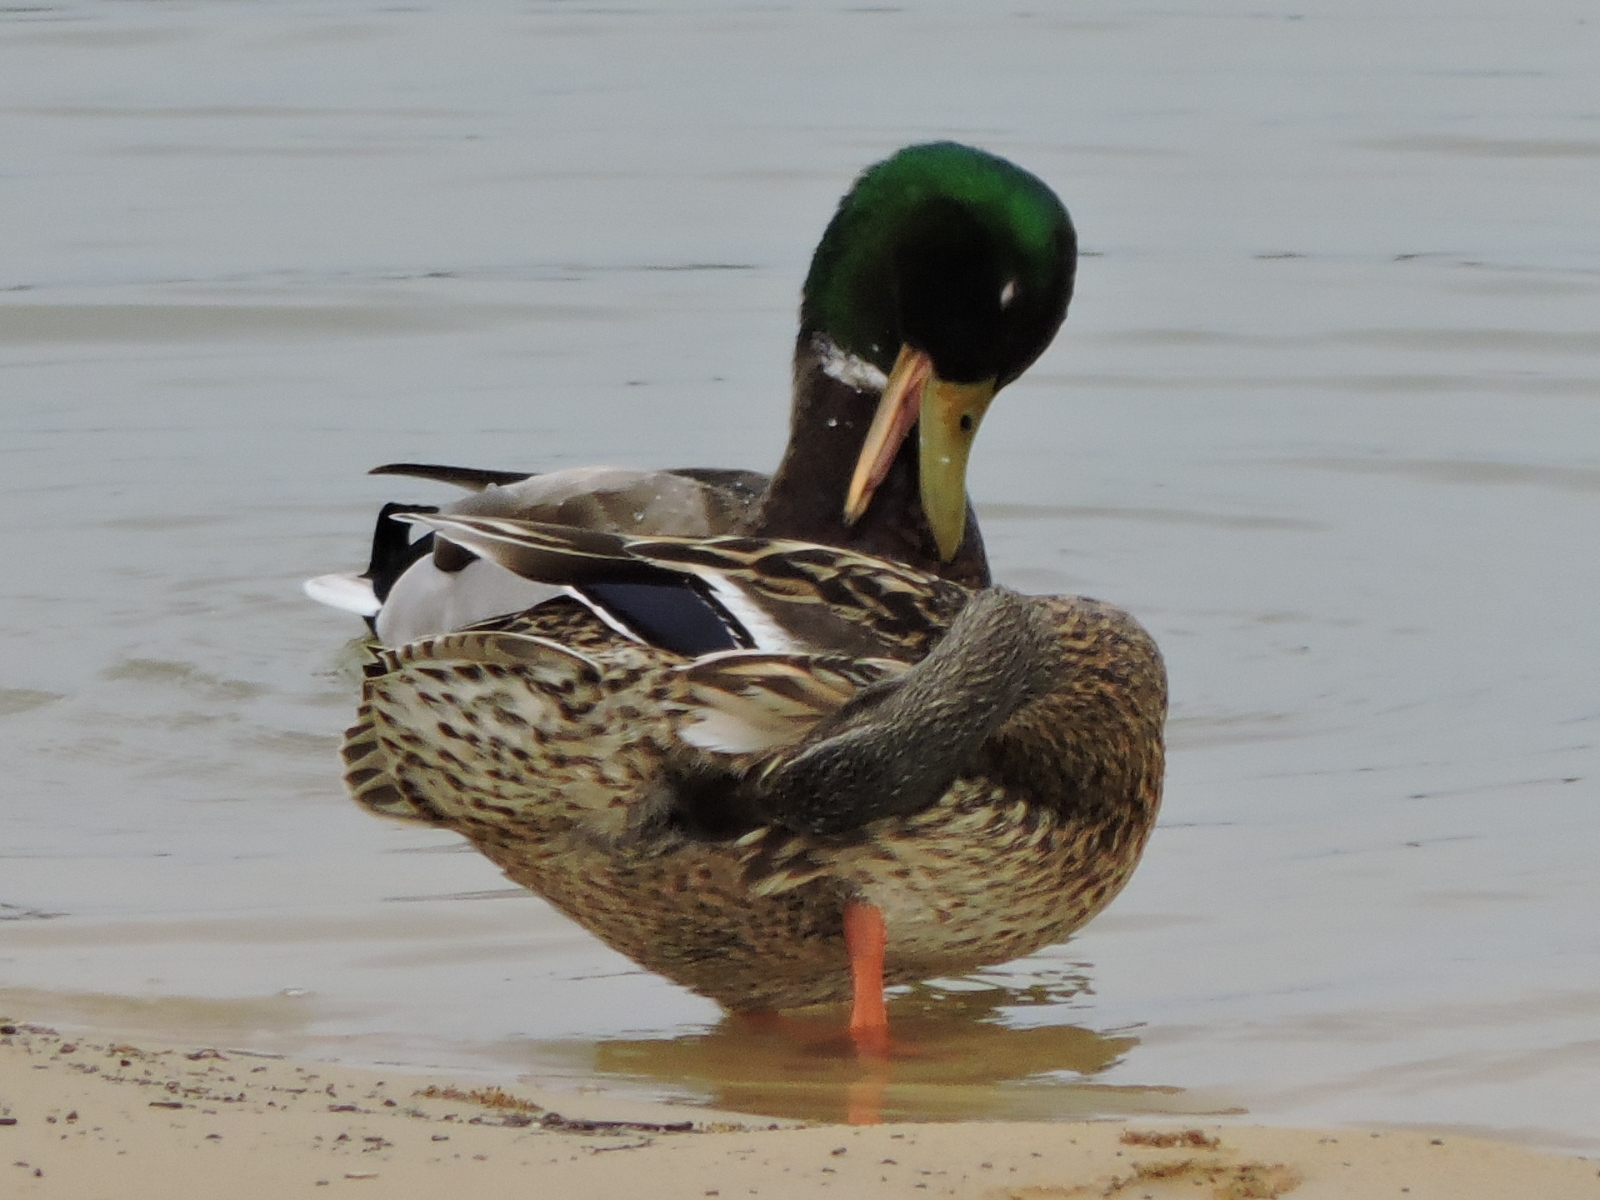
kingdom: Animalia
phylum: Chordata
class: Aves
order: Anseriformes
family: Anatidae
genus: Anas
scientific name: Anas platyrhynchos
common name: Mallard
